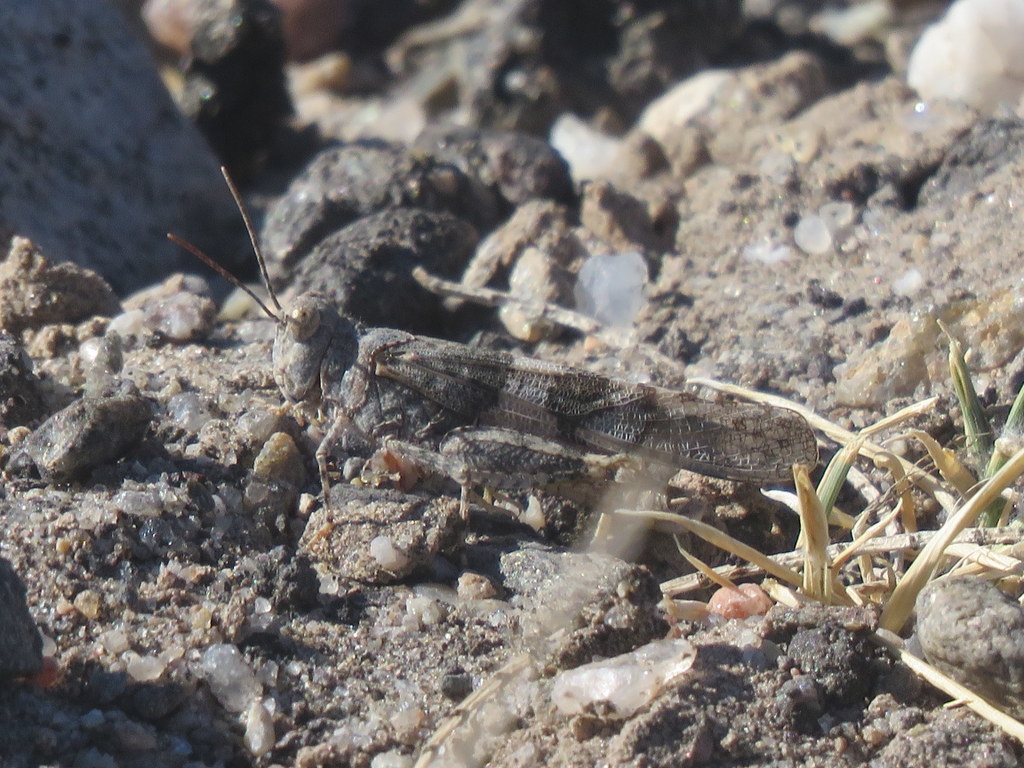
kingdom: Animalia
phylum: Arthropoda
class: Insecta
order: Orthoptera
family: Acrididae
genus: Trimerotropis
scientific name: Trimerotropis pallidipennis
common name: Pallid-winged grasshopper
